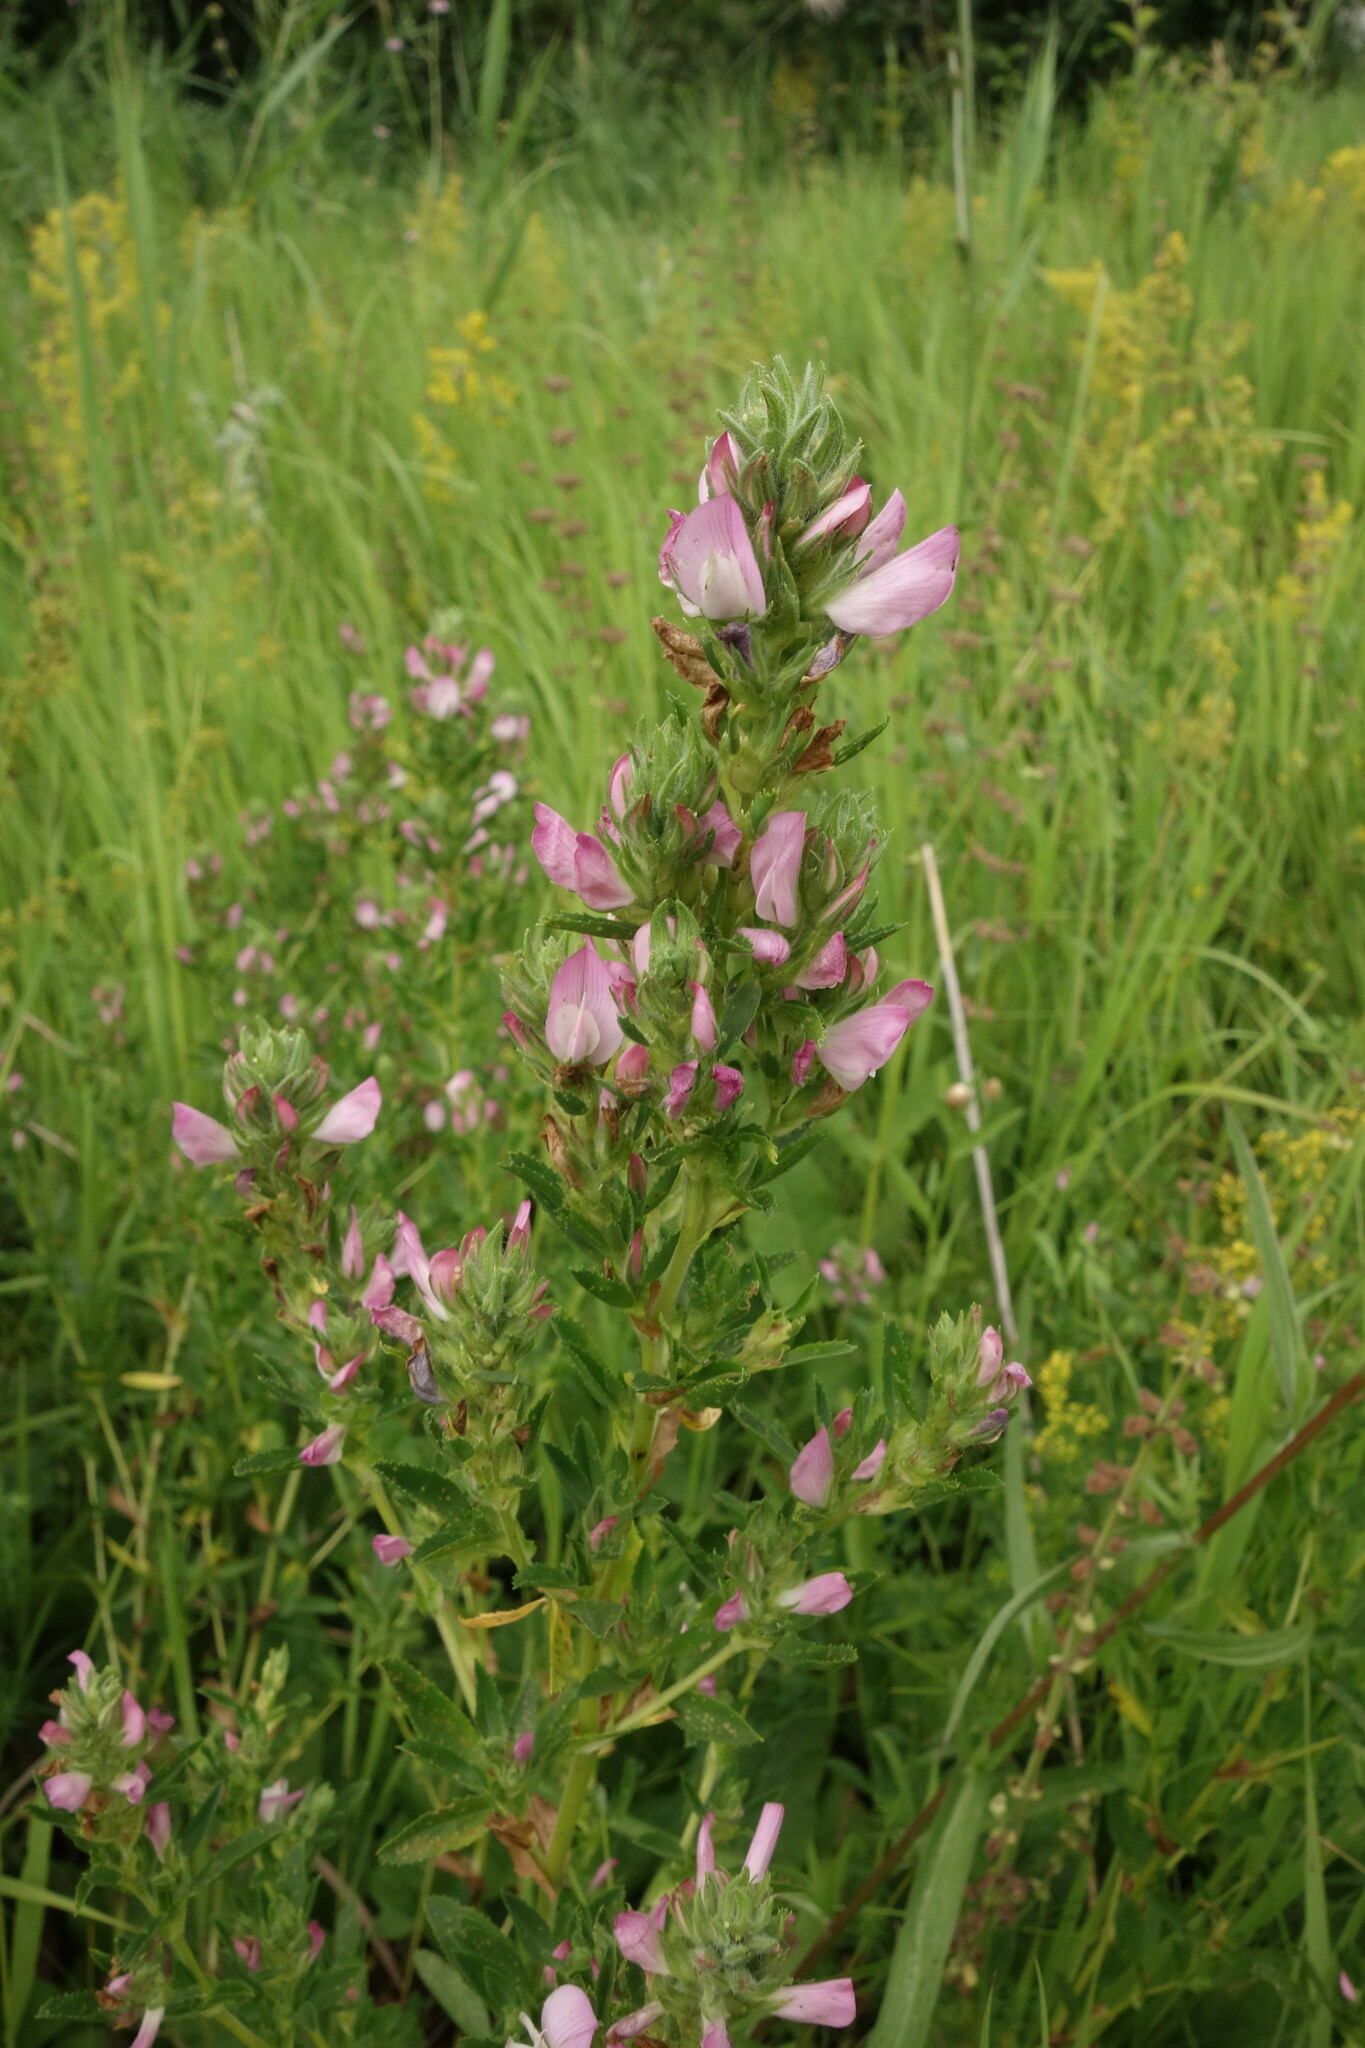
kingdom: Plantae
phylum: Tracheophyta
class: Magnoliopsida
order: Fabales
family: Fabaceae
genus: Ononis
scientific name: Ononis arvensis
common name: Field restharrow
